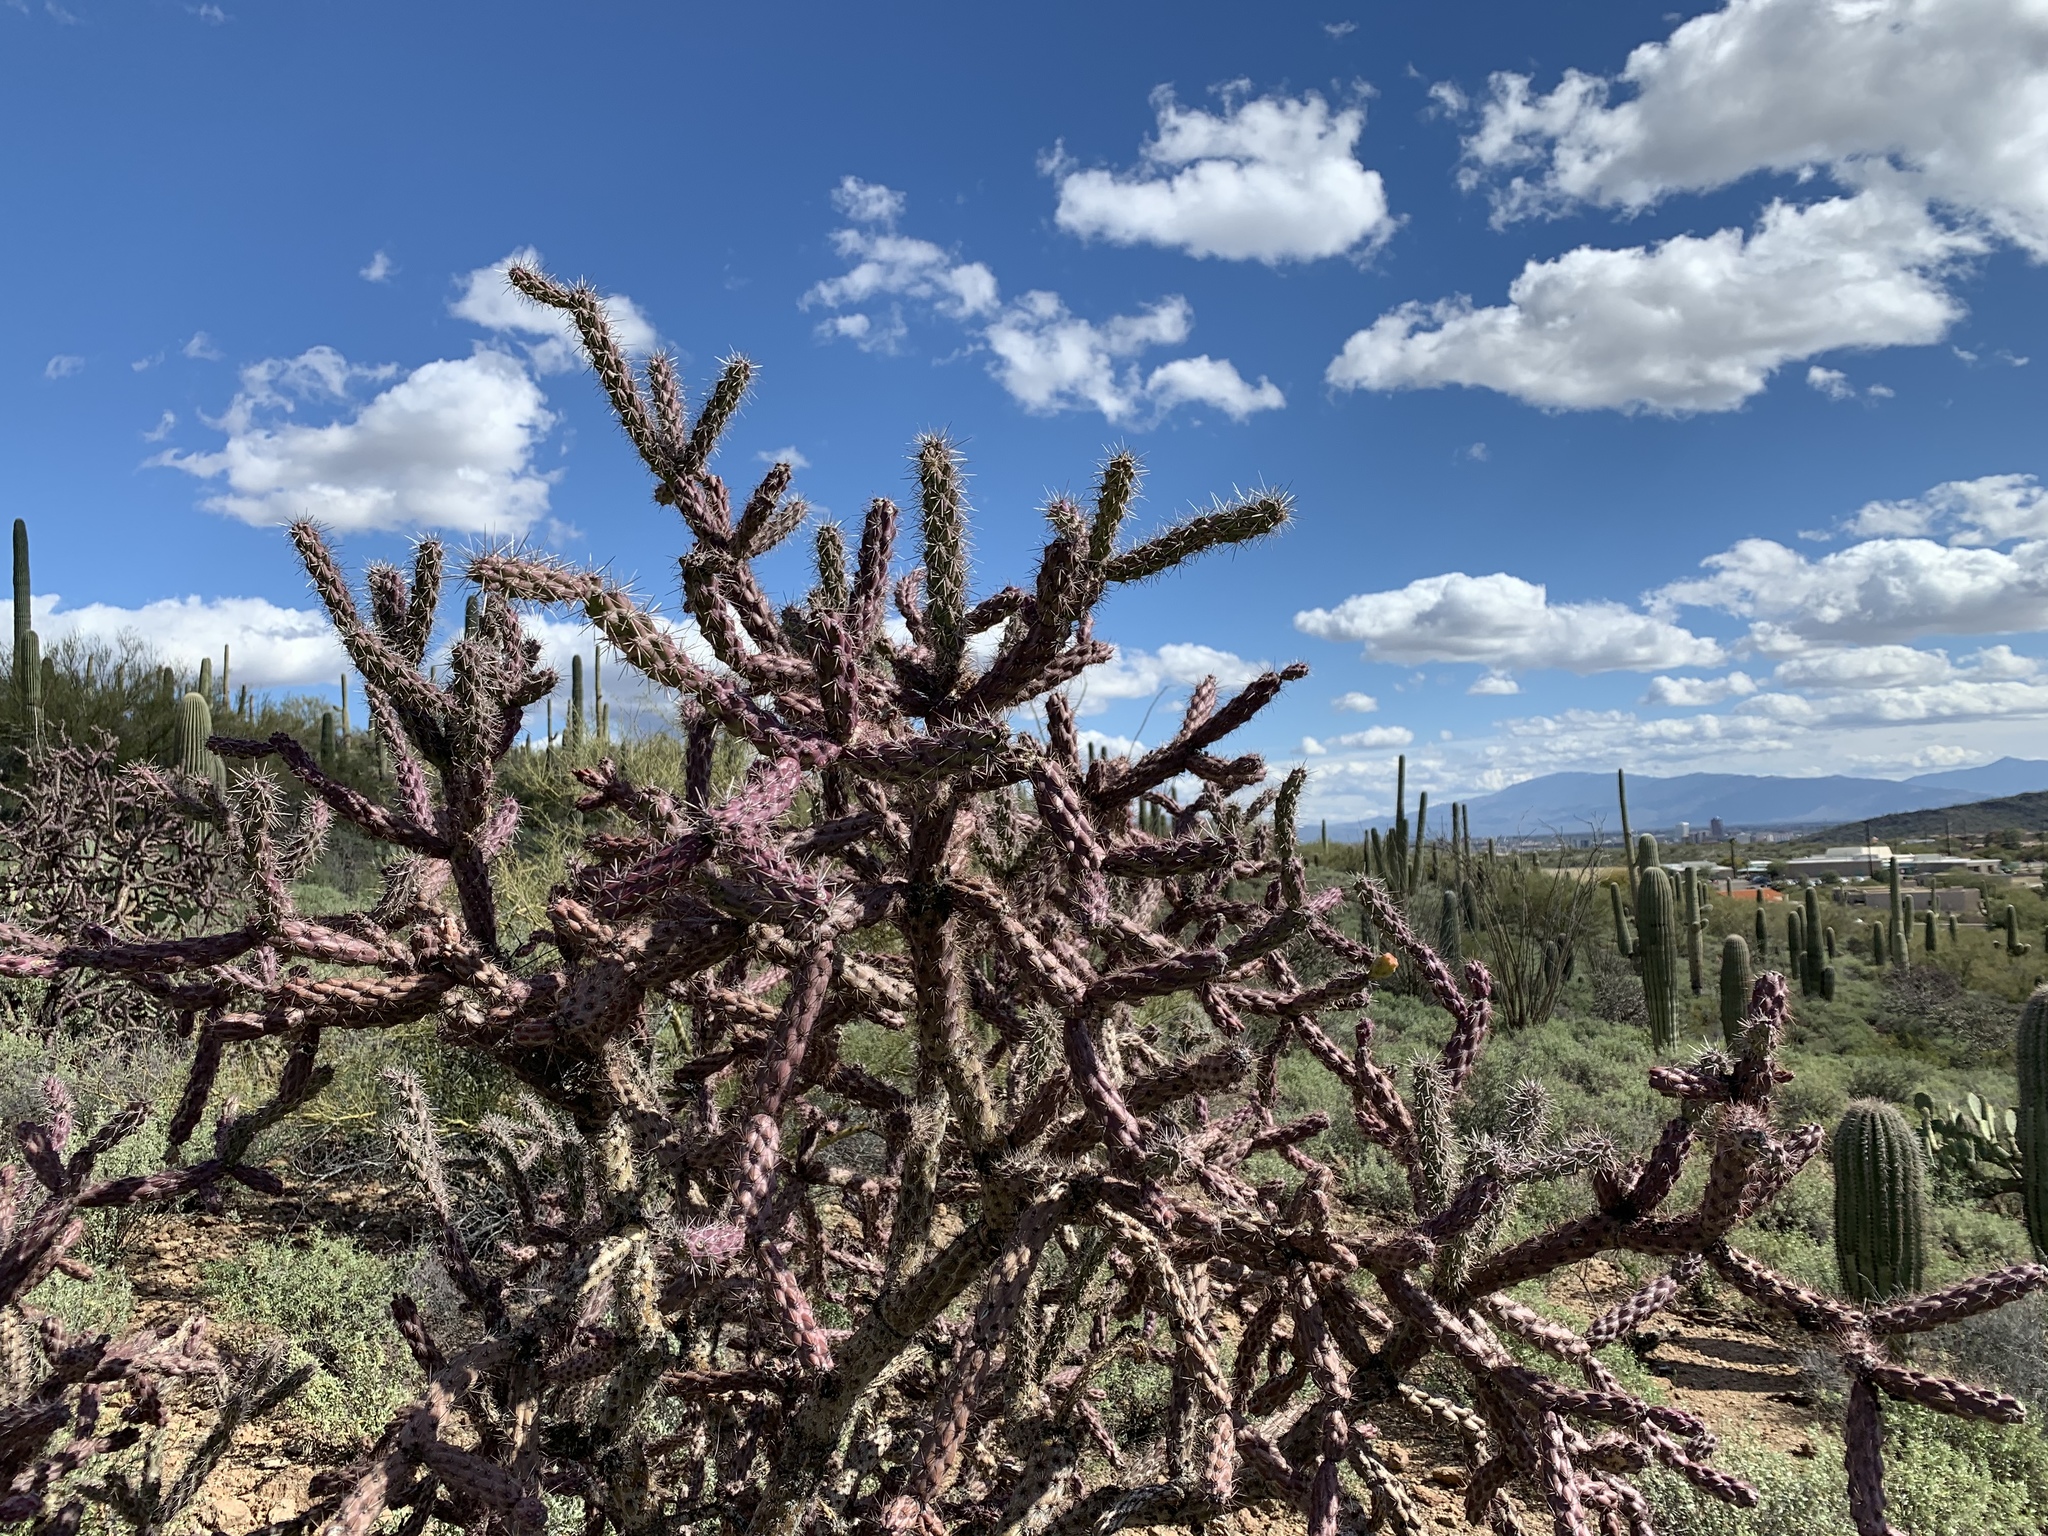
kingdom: Plantae
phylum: Tracheophyta
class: Magnoliopsida
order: Caryophyllales
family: Cactaceae
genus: Cylindropuntia
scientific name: Cylindropuntia thurberi
